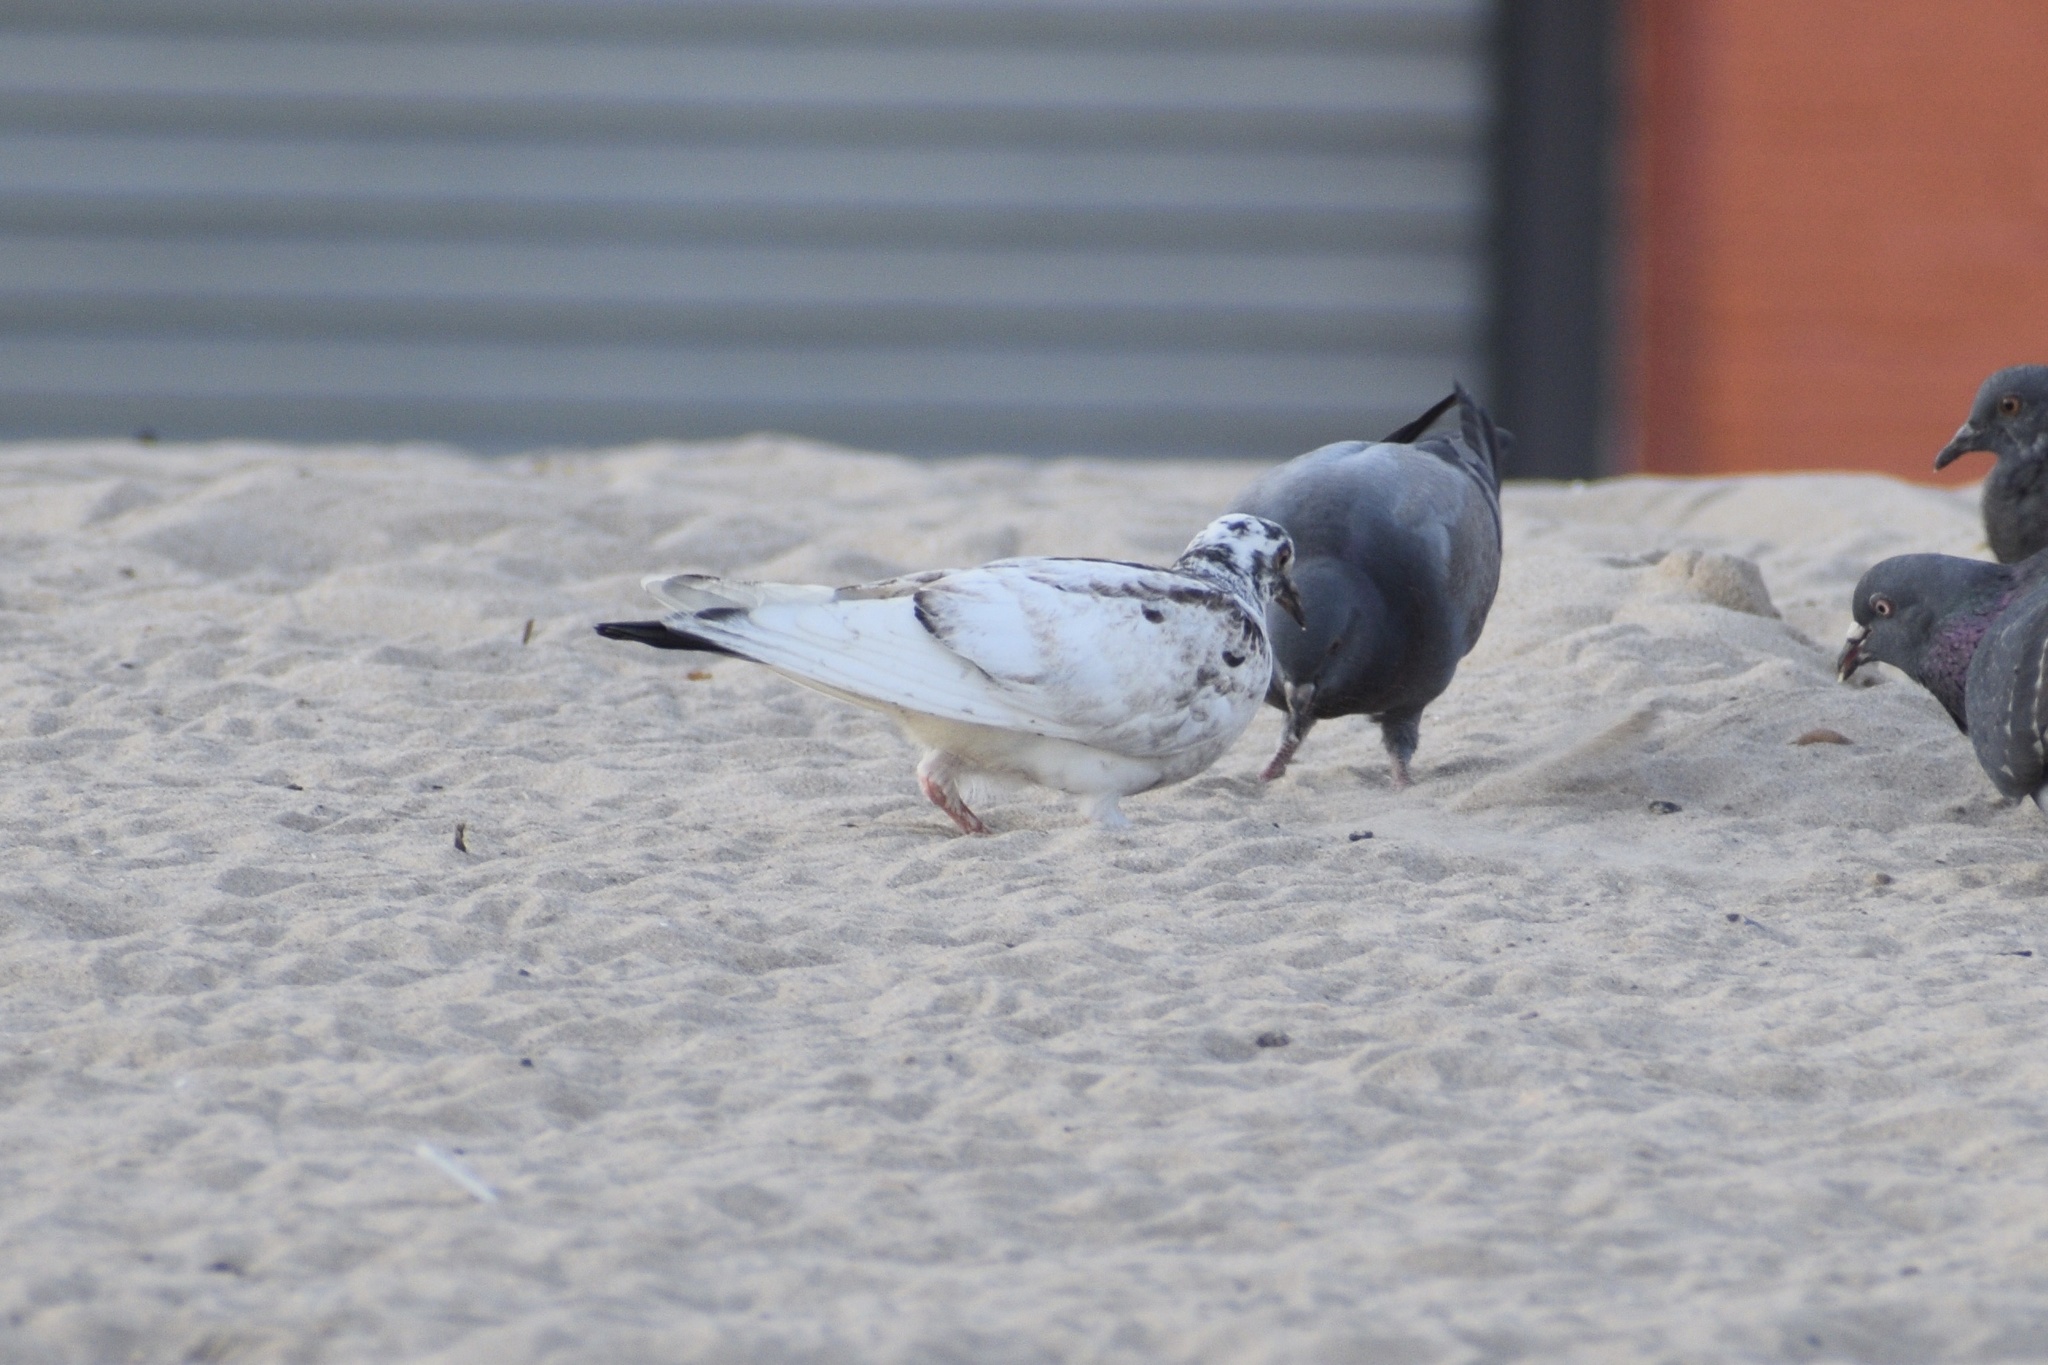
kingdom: Animalia
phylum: Chordata
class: Aves
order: Columbiformes
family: Columbidae
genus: Columba
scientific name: Columba livia
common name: Rock pigeon
